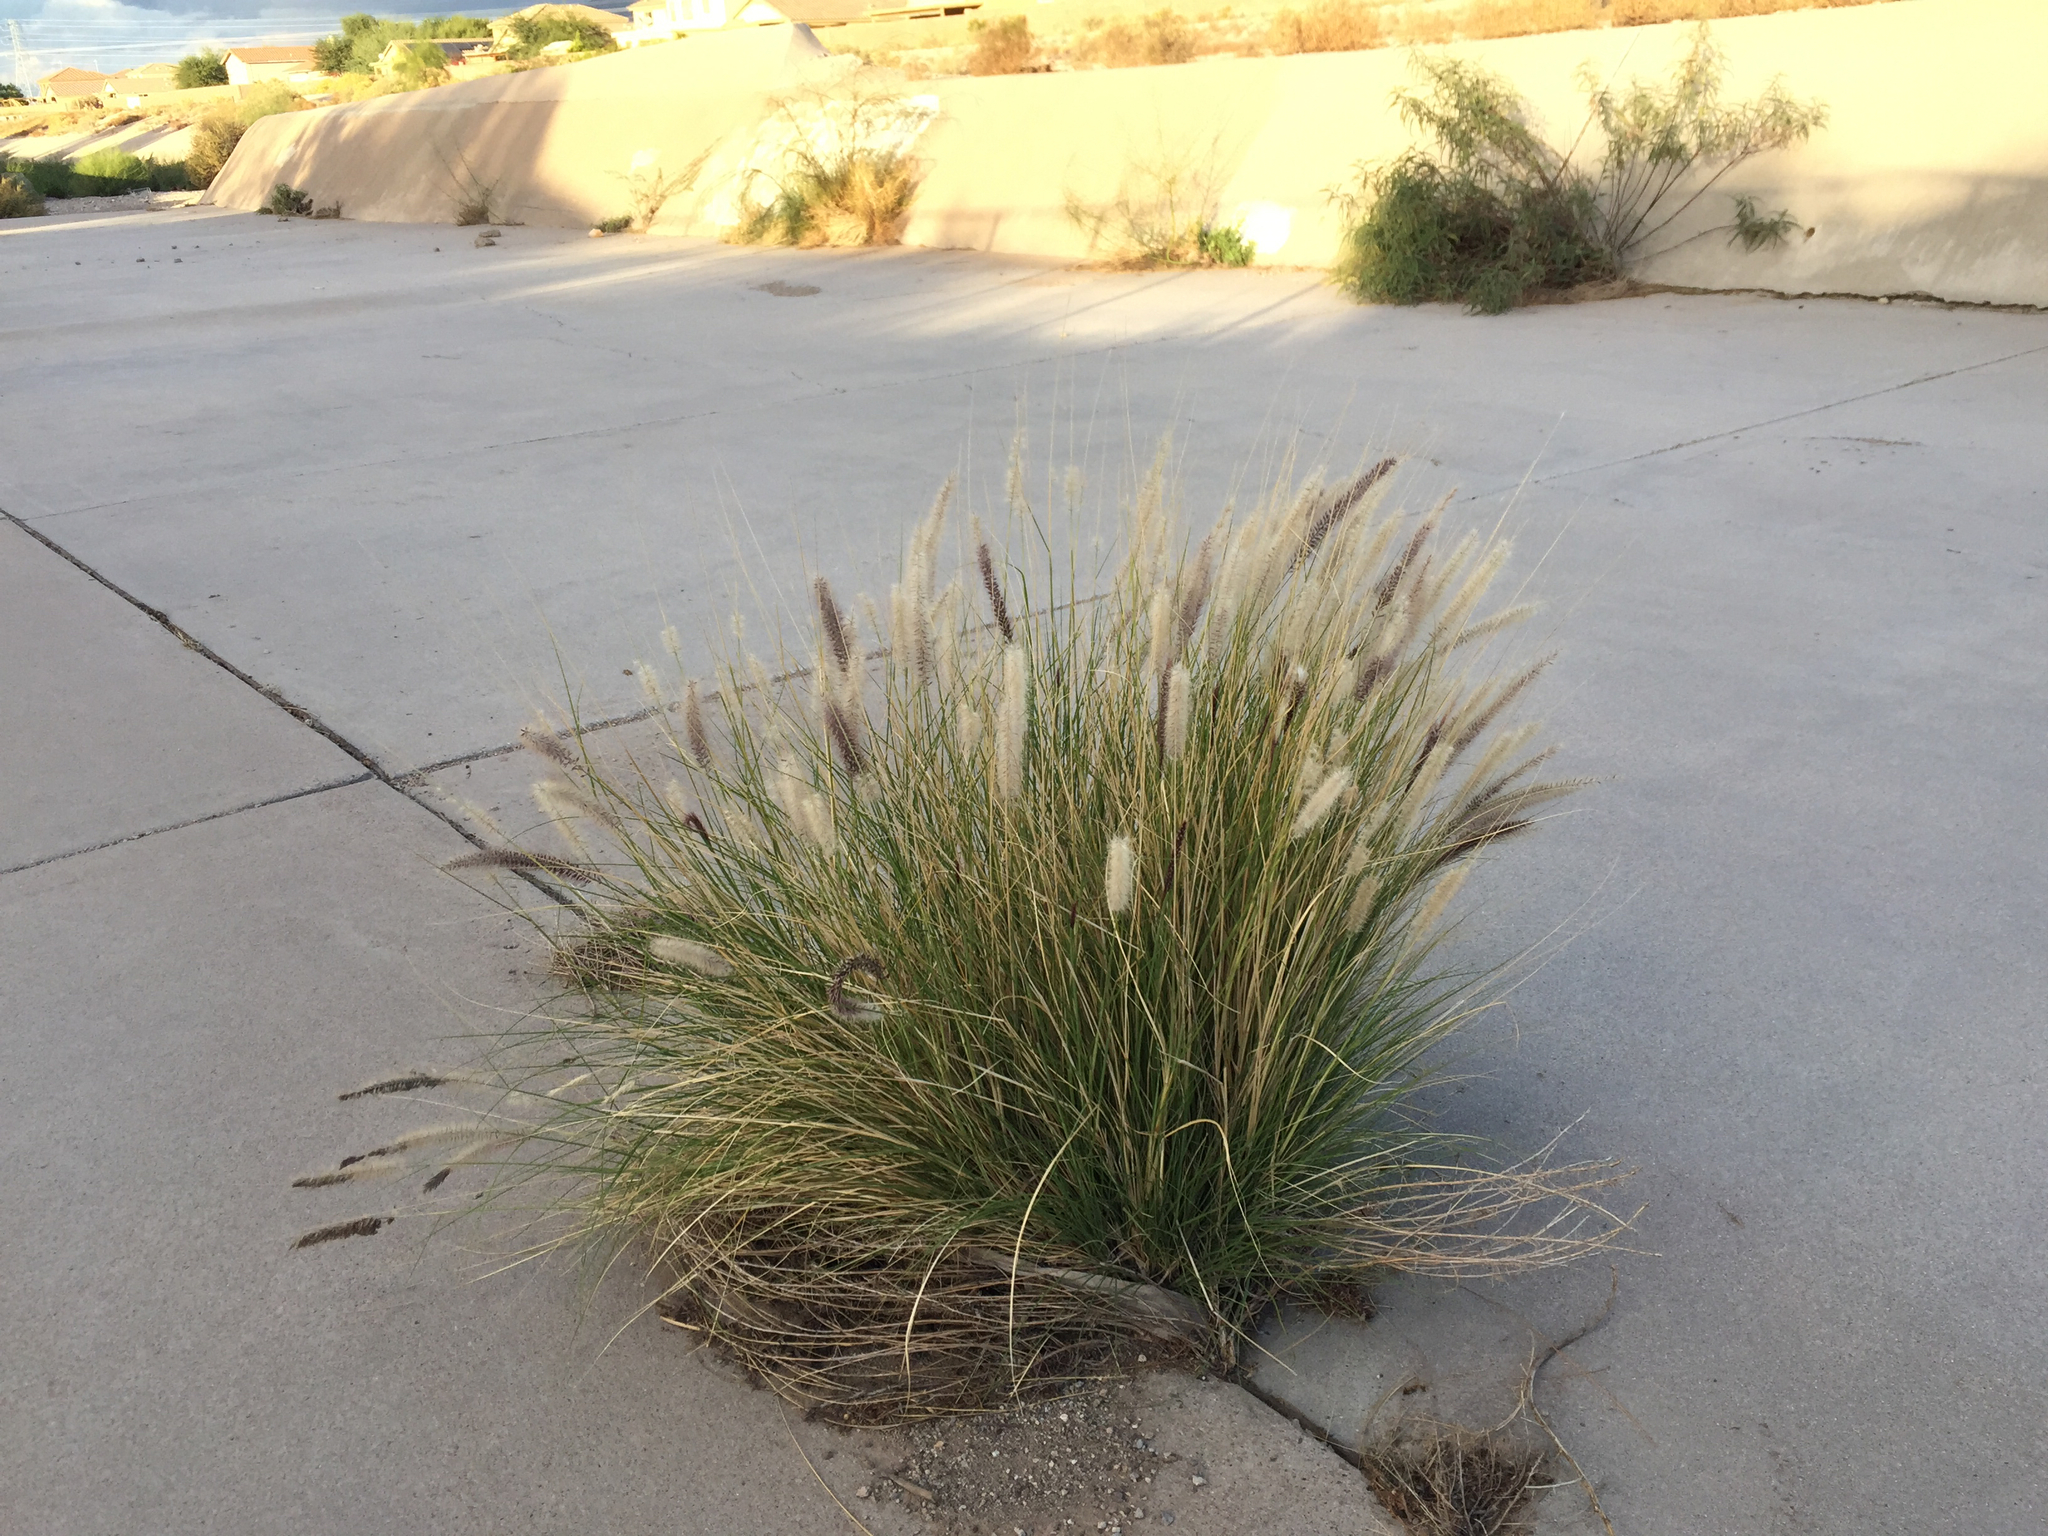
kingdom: Plantae
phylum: Tracheophyta
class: Liliopsida
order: Poales
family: Poaceae
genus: Cenchrus
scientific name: Cenchrus setaceus
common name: Crimson fountaingrass
